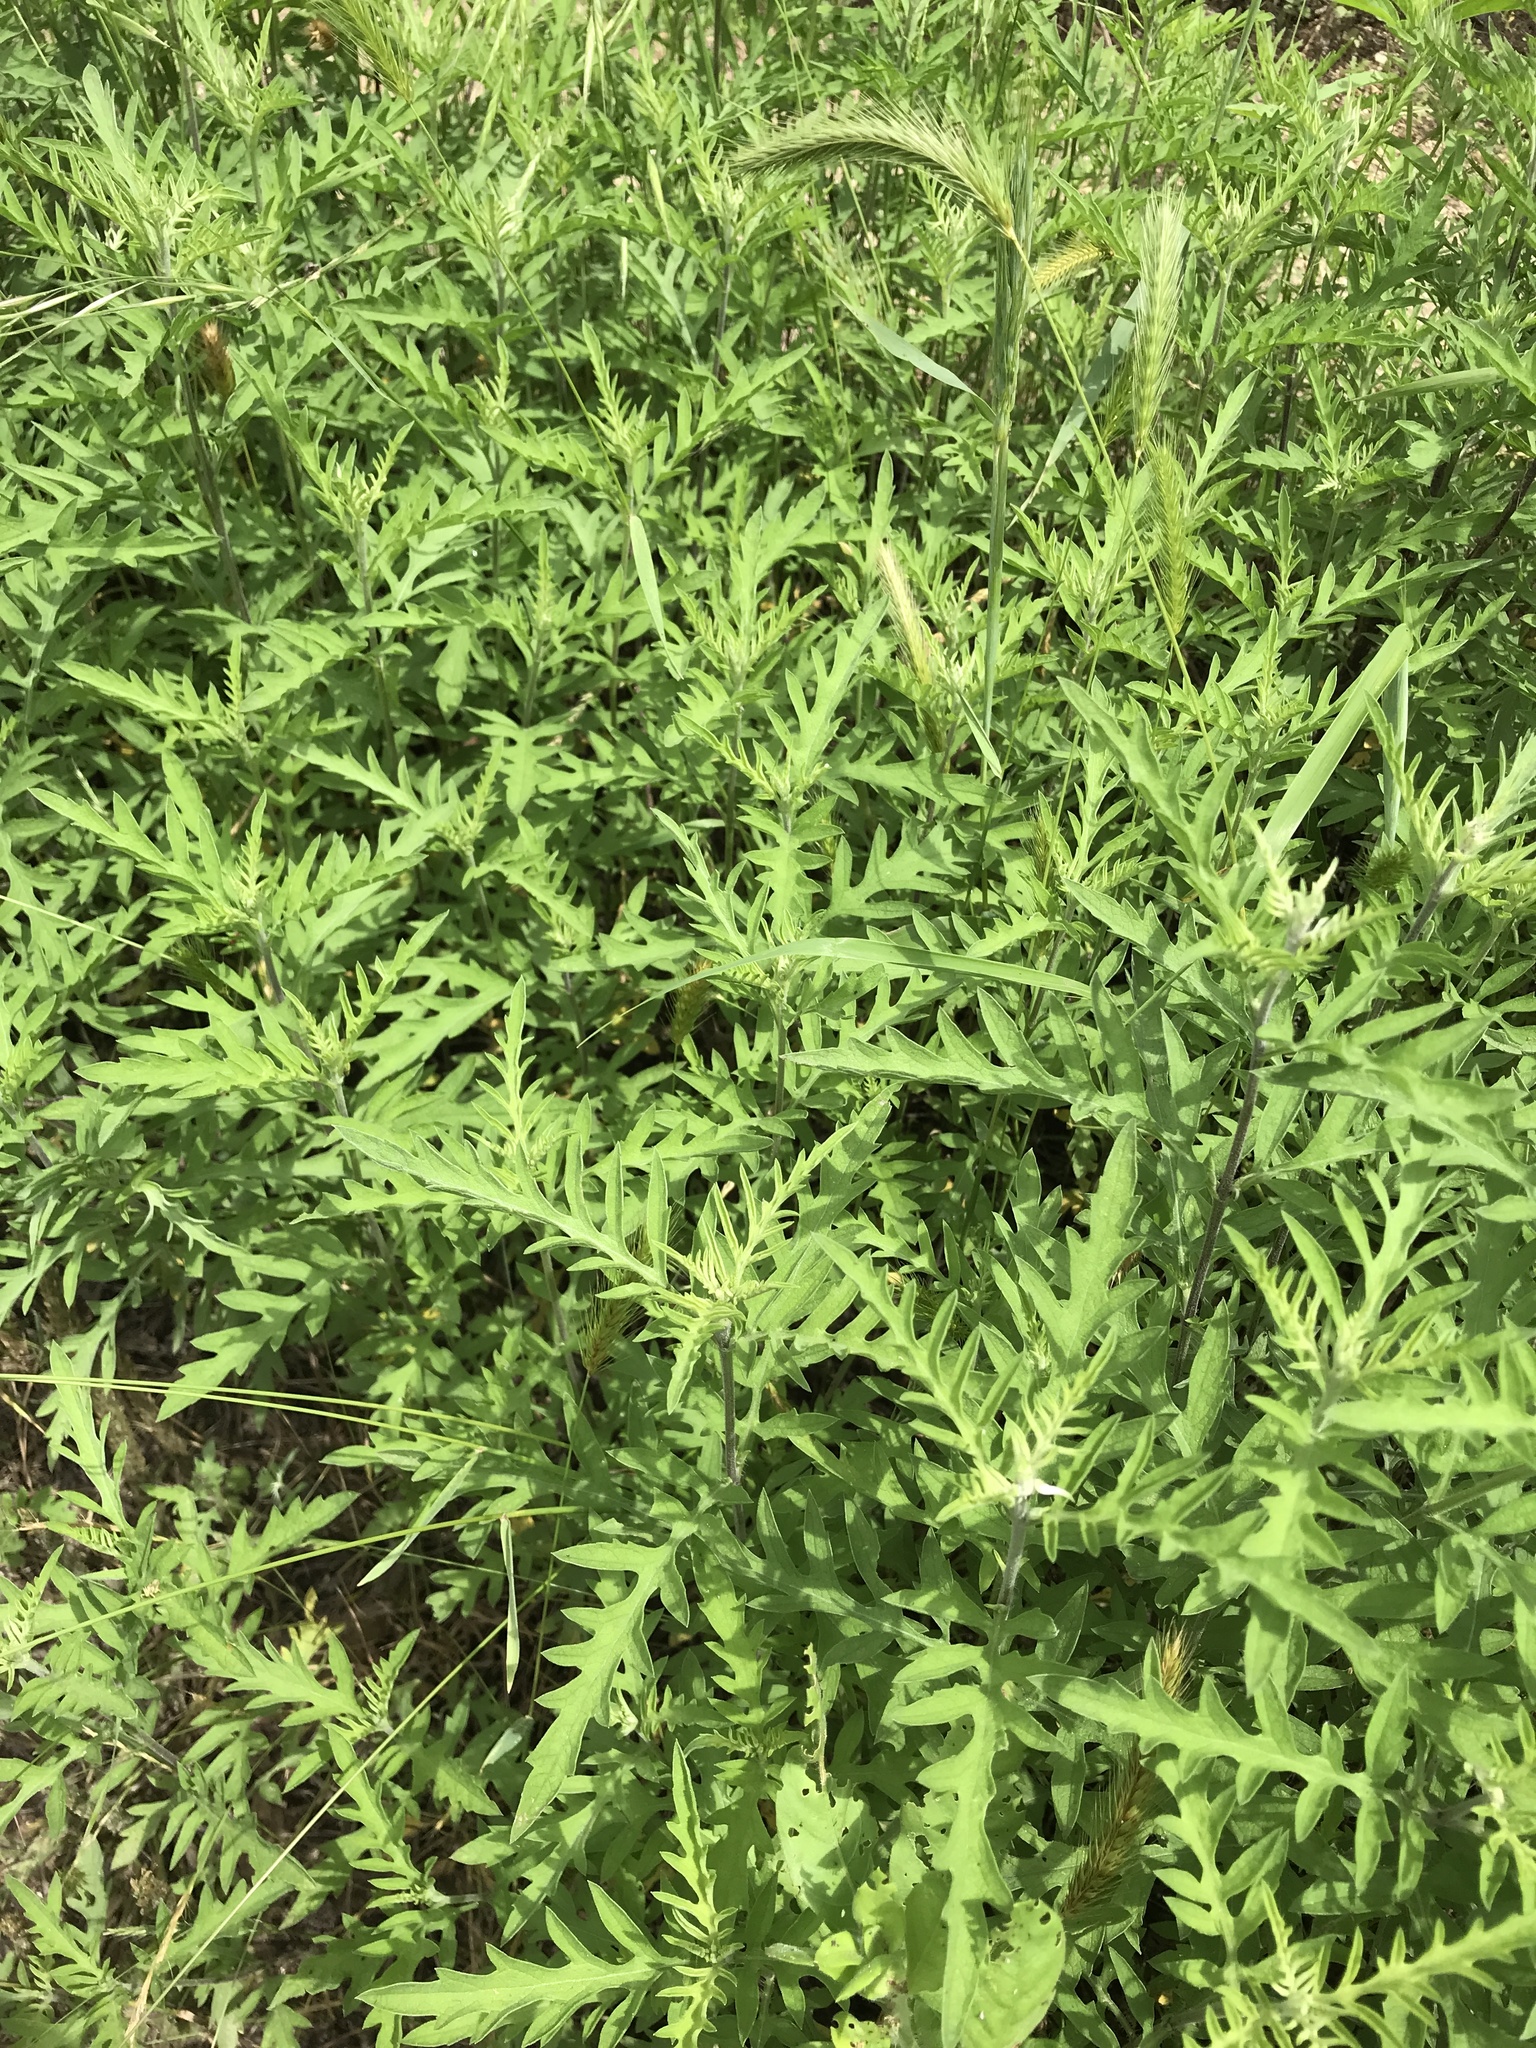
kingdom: Plantae
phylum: Tracheophyta
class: Magnoliopsida
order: Asterales
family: Asteraceae
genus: Ambrosia
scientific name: Ambrosia psilostachya
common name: Perennial ragweed
